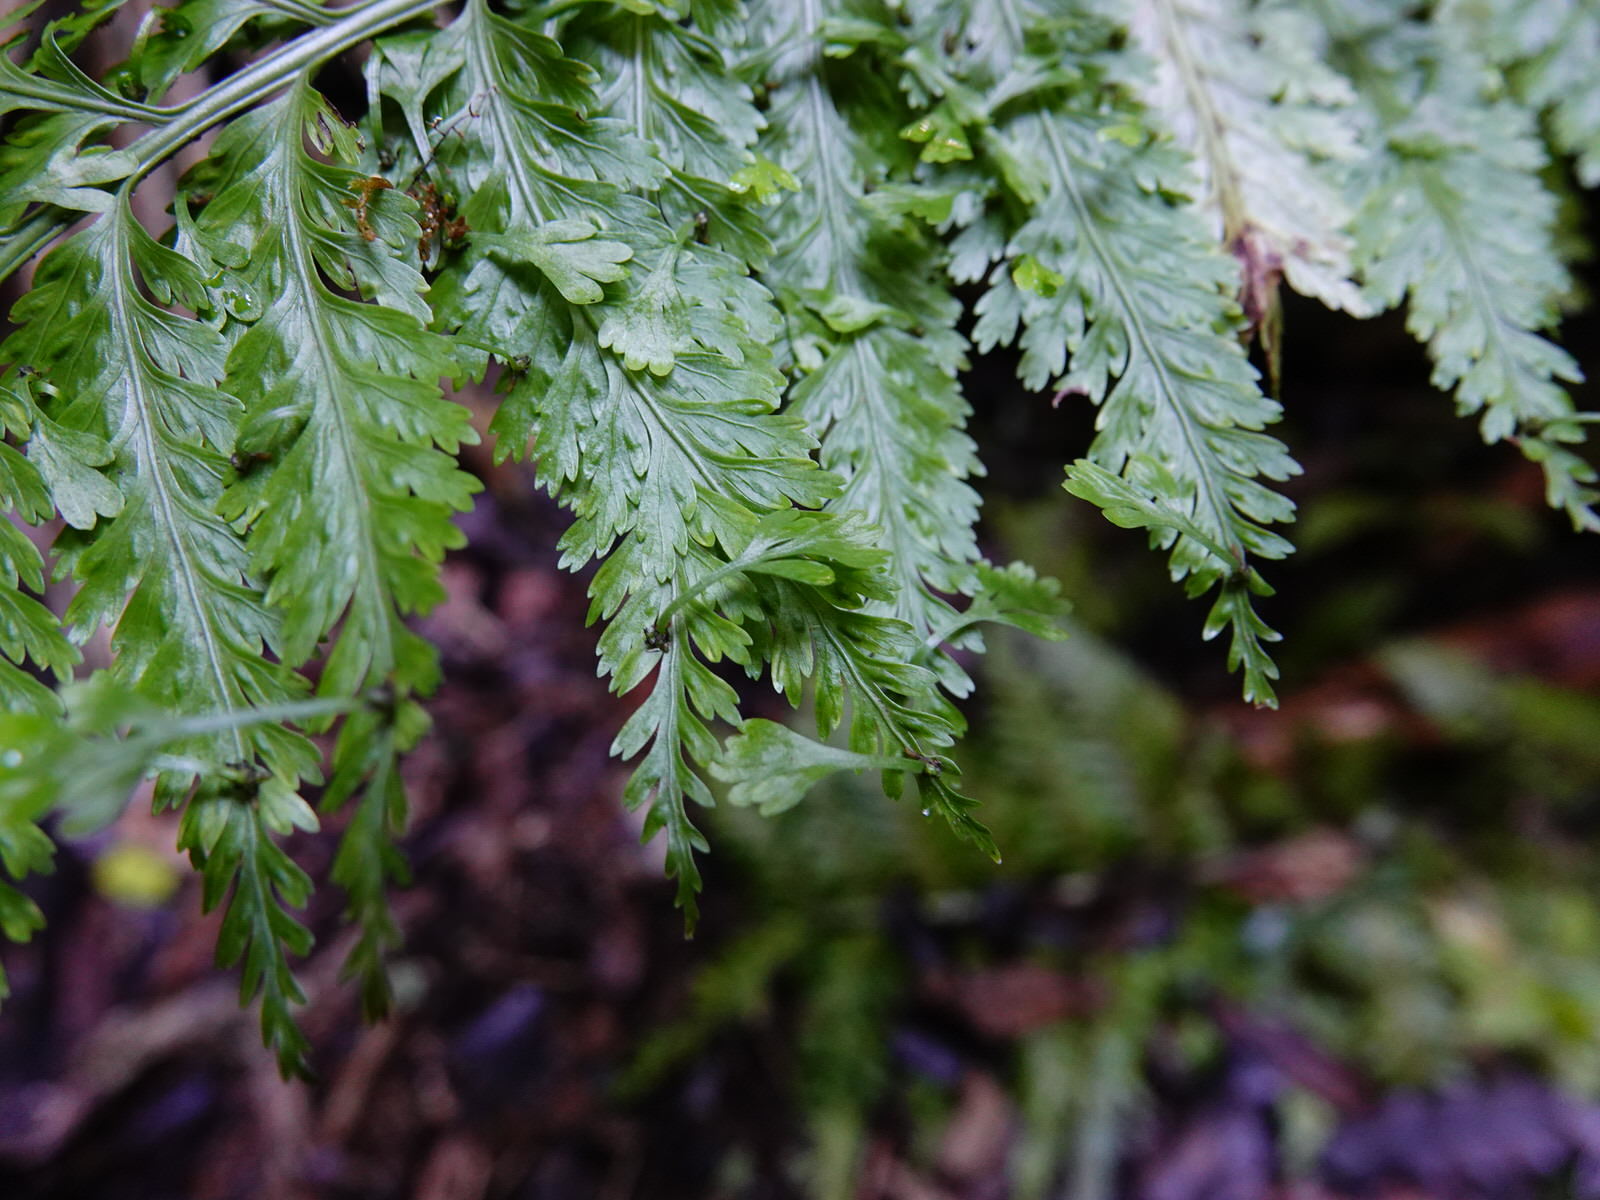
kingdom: Plantae
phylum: Tracheophyta
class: Polypodiopsida
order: Polypodiales
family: Aspleniaceae
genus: Asplenium
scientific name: Asplenium bulbiferum
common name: Mother fern
